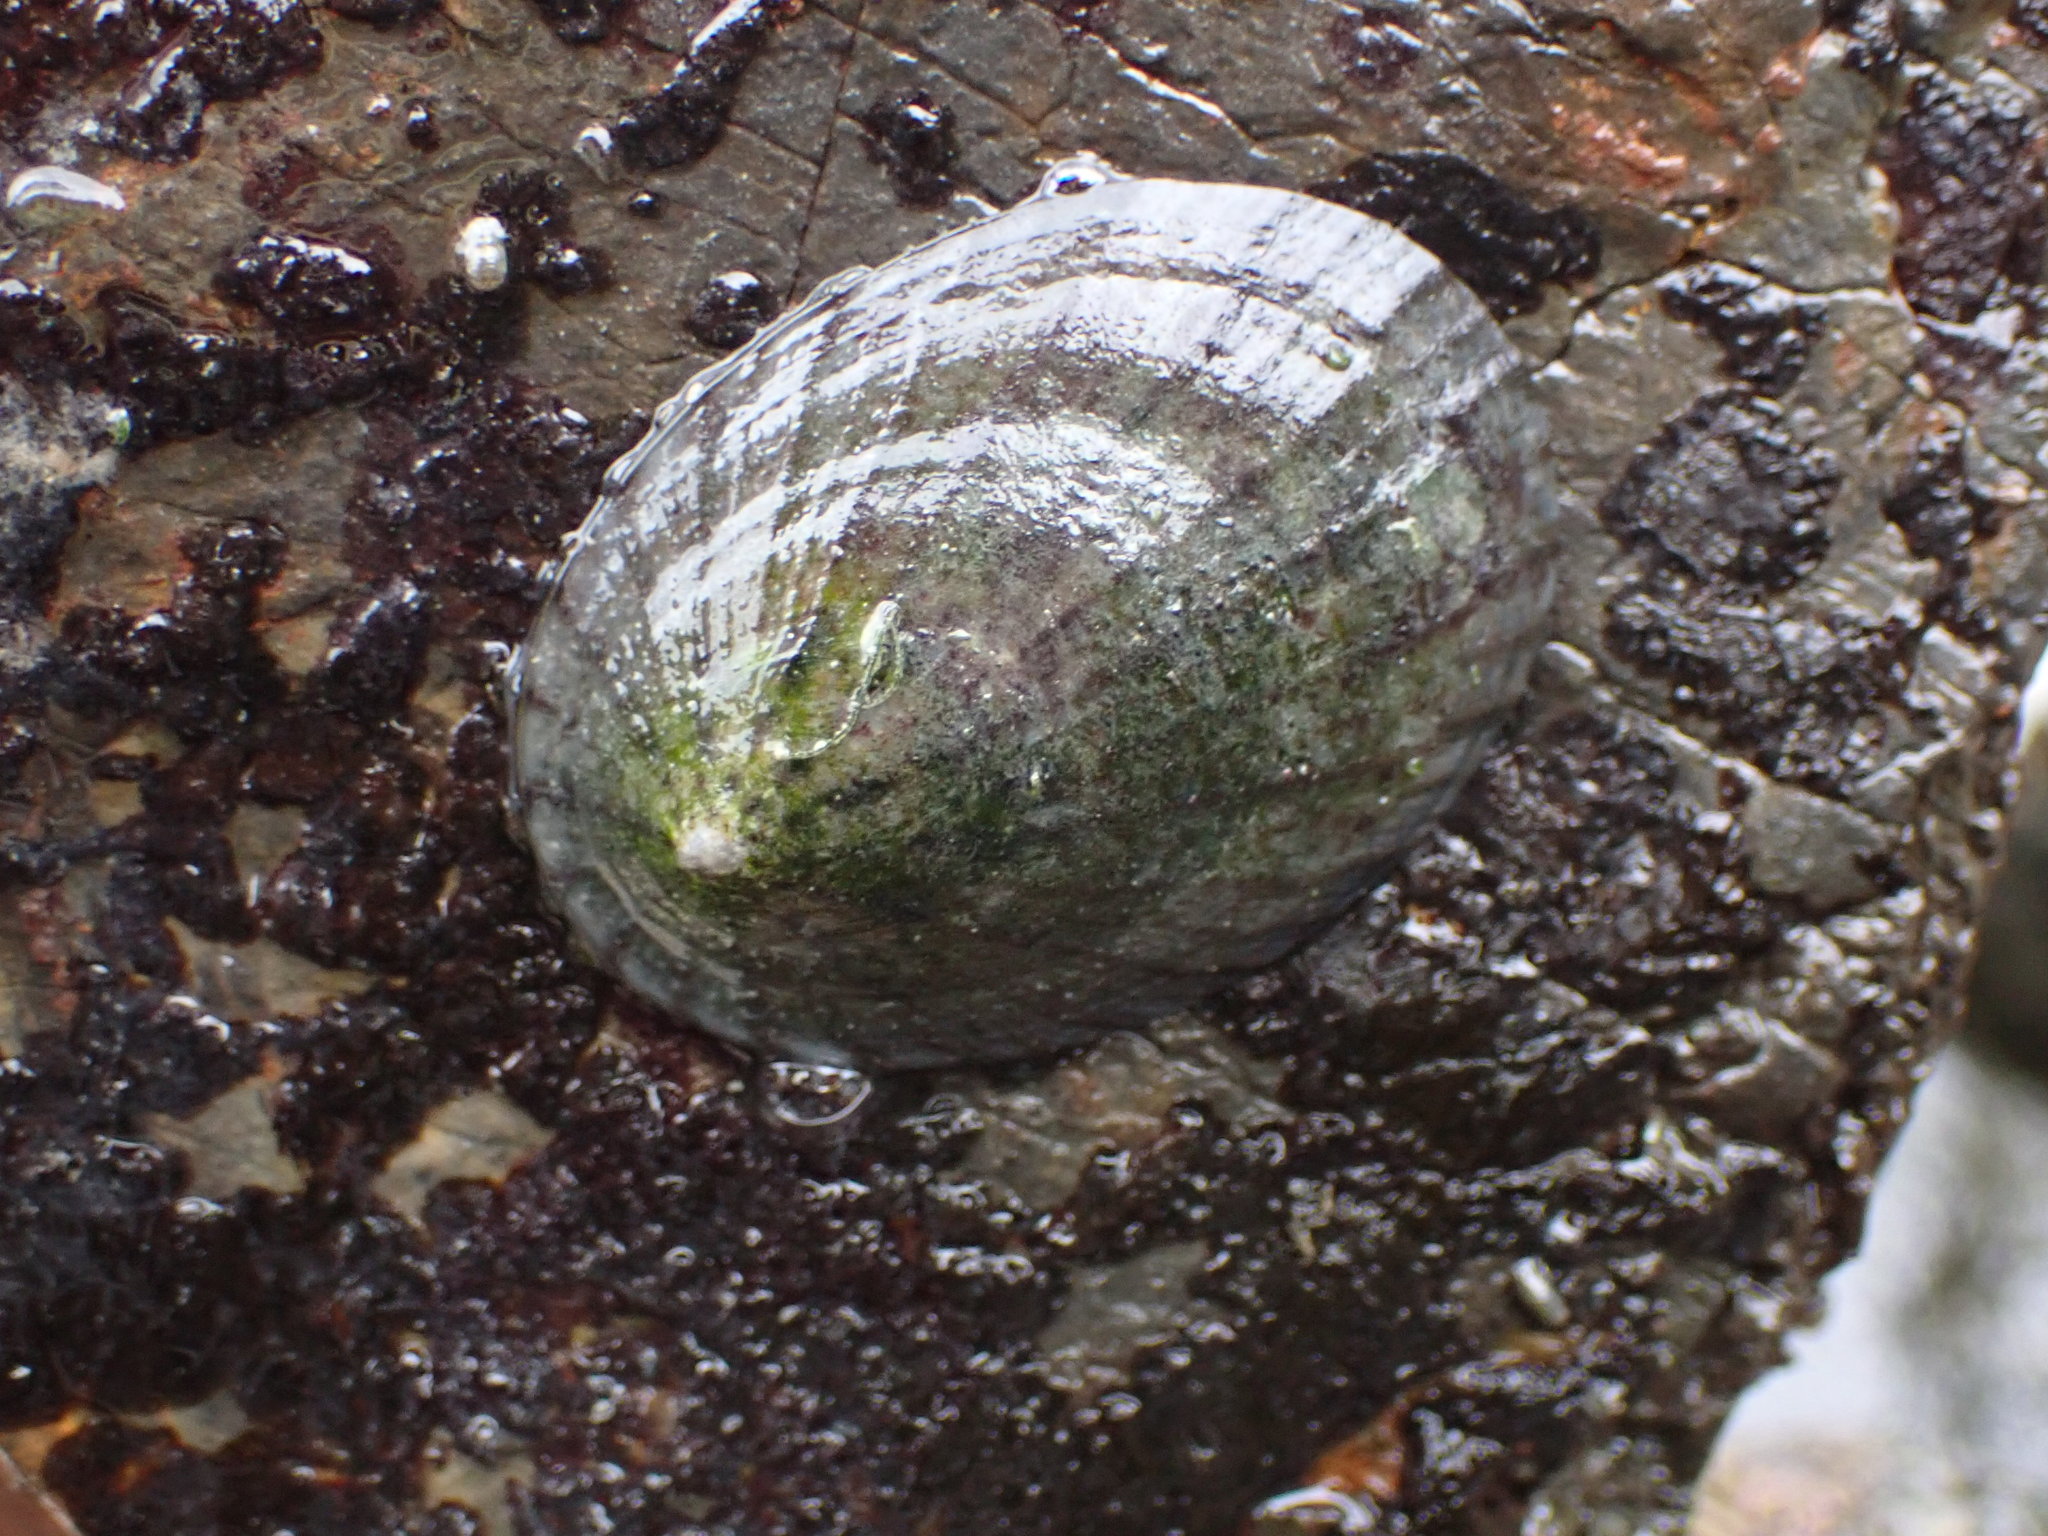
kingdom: Animalia
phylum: Mollusca
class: Gastropoda
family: Nacellidae
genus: Cellana
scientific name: Cellana radians
